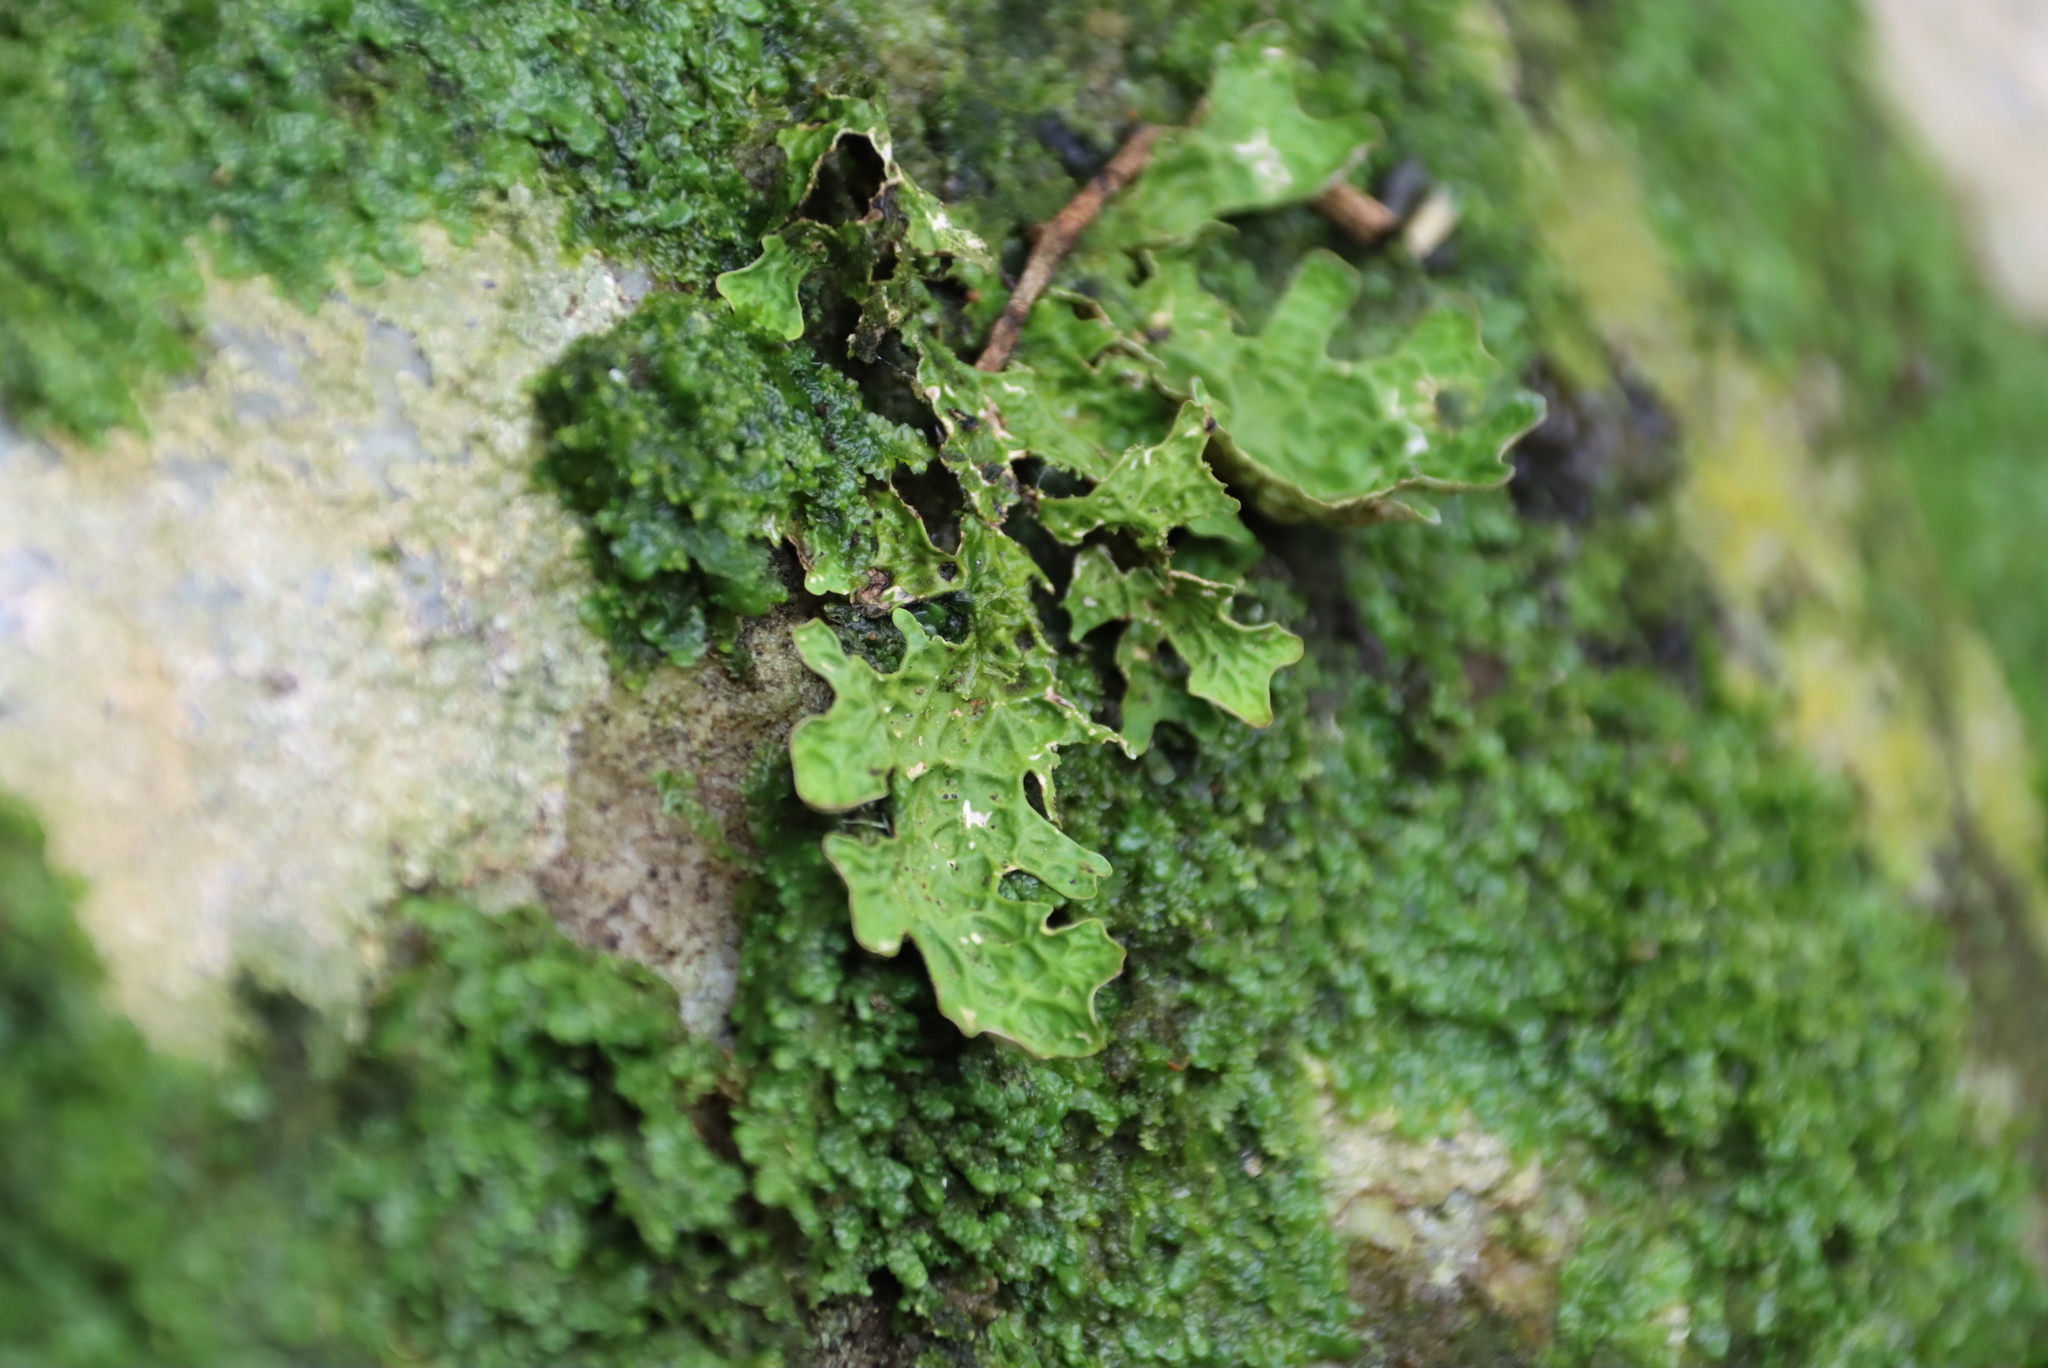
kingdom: Fungi
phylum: Ascomycota
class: Lecanoromycetes
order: Peltigerales
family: Lobariaceae
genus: Lobaria
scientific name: Lobaria pulmonaria
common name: Lungwort
